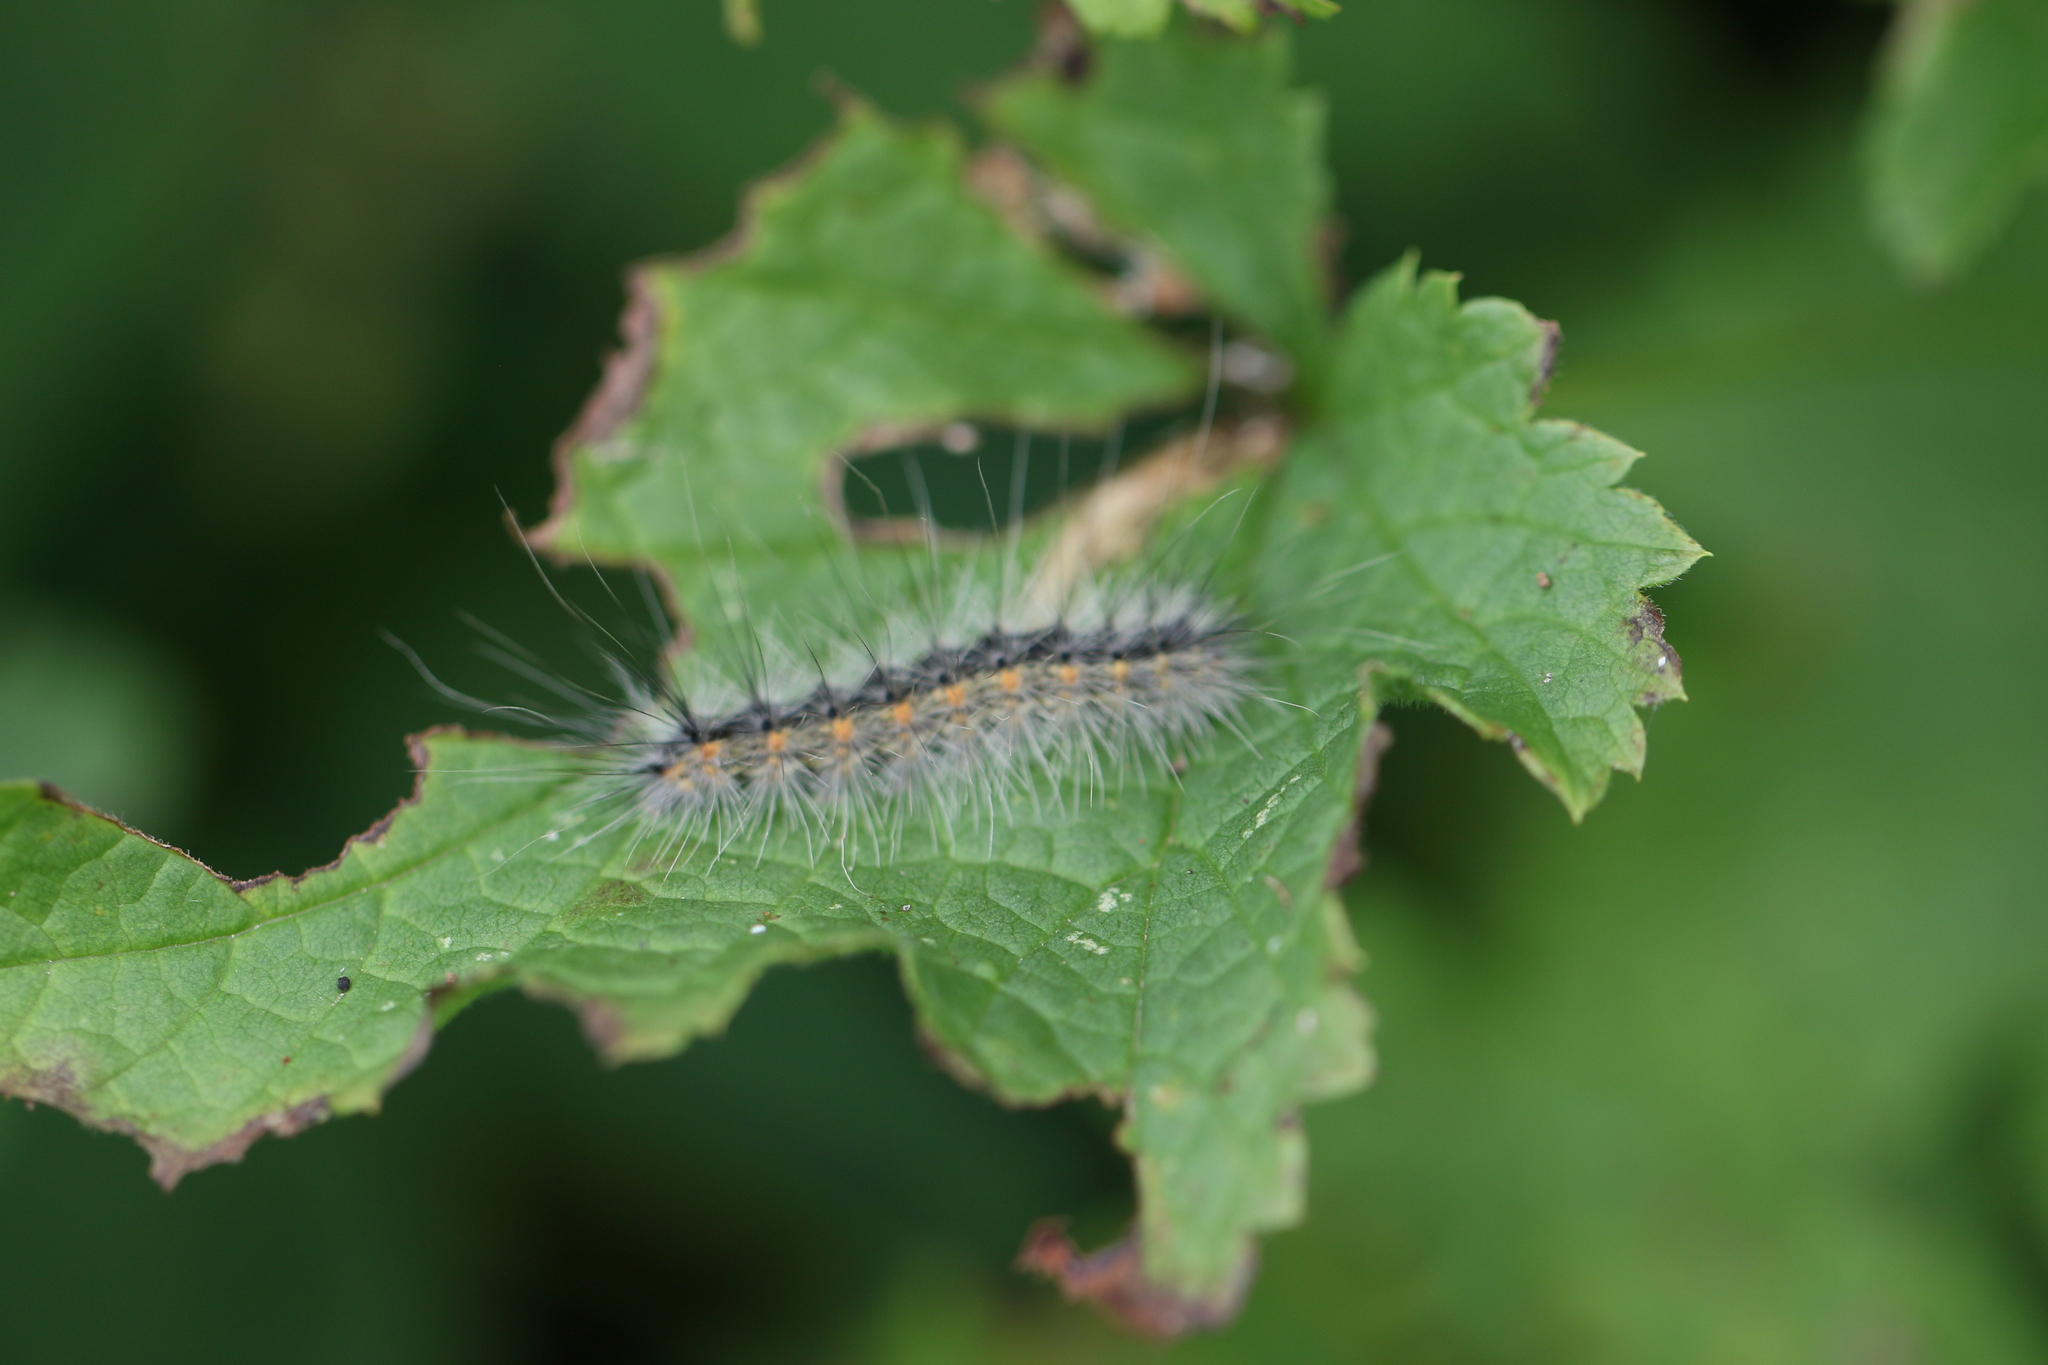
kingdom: Animalia
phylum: Arthropoda
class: Insecta
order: Lepidoptera
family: Erebidae
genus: Hyphantria
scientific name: Hyphantria cunea
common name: American white moth
